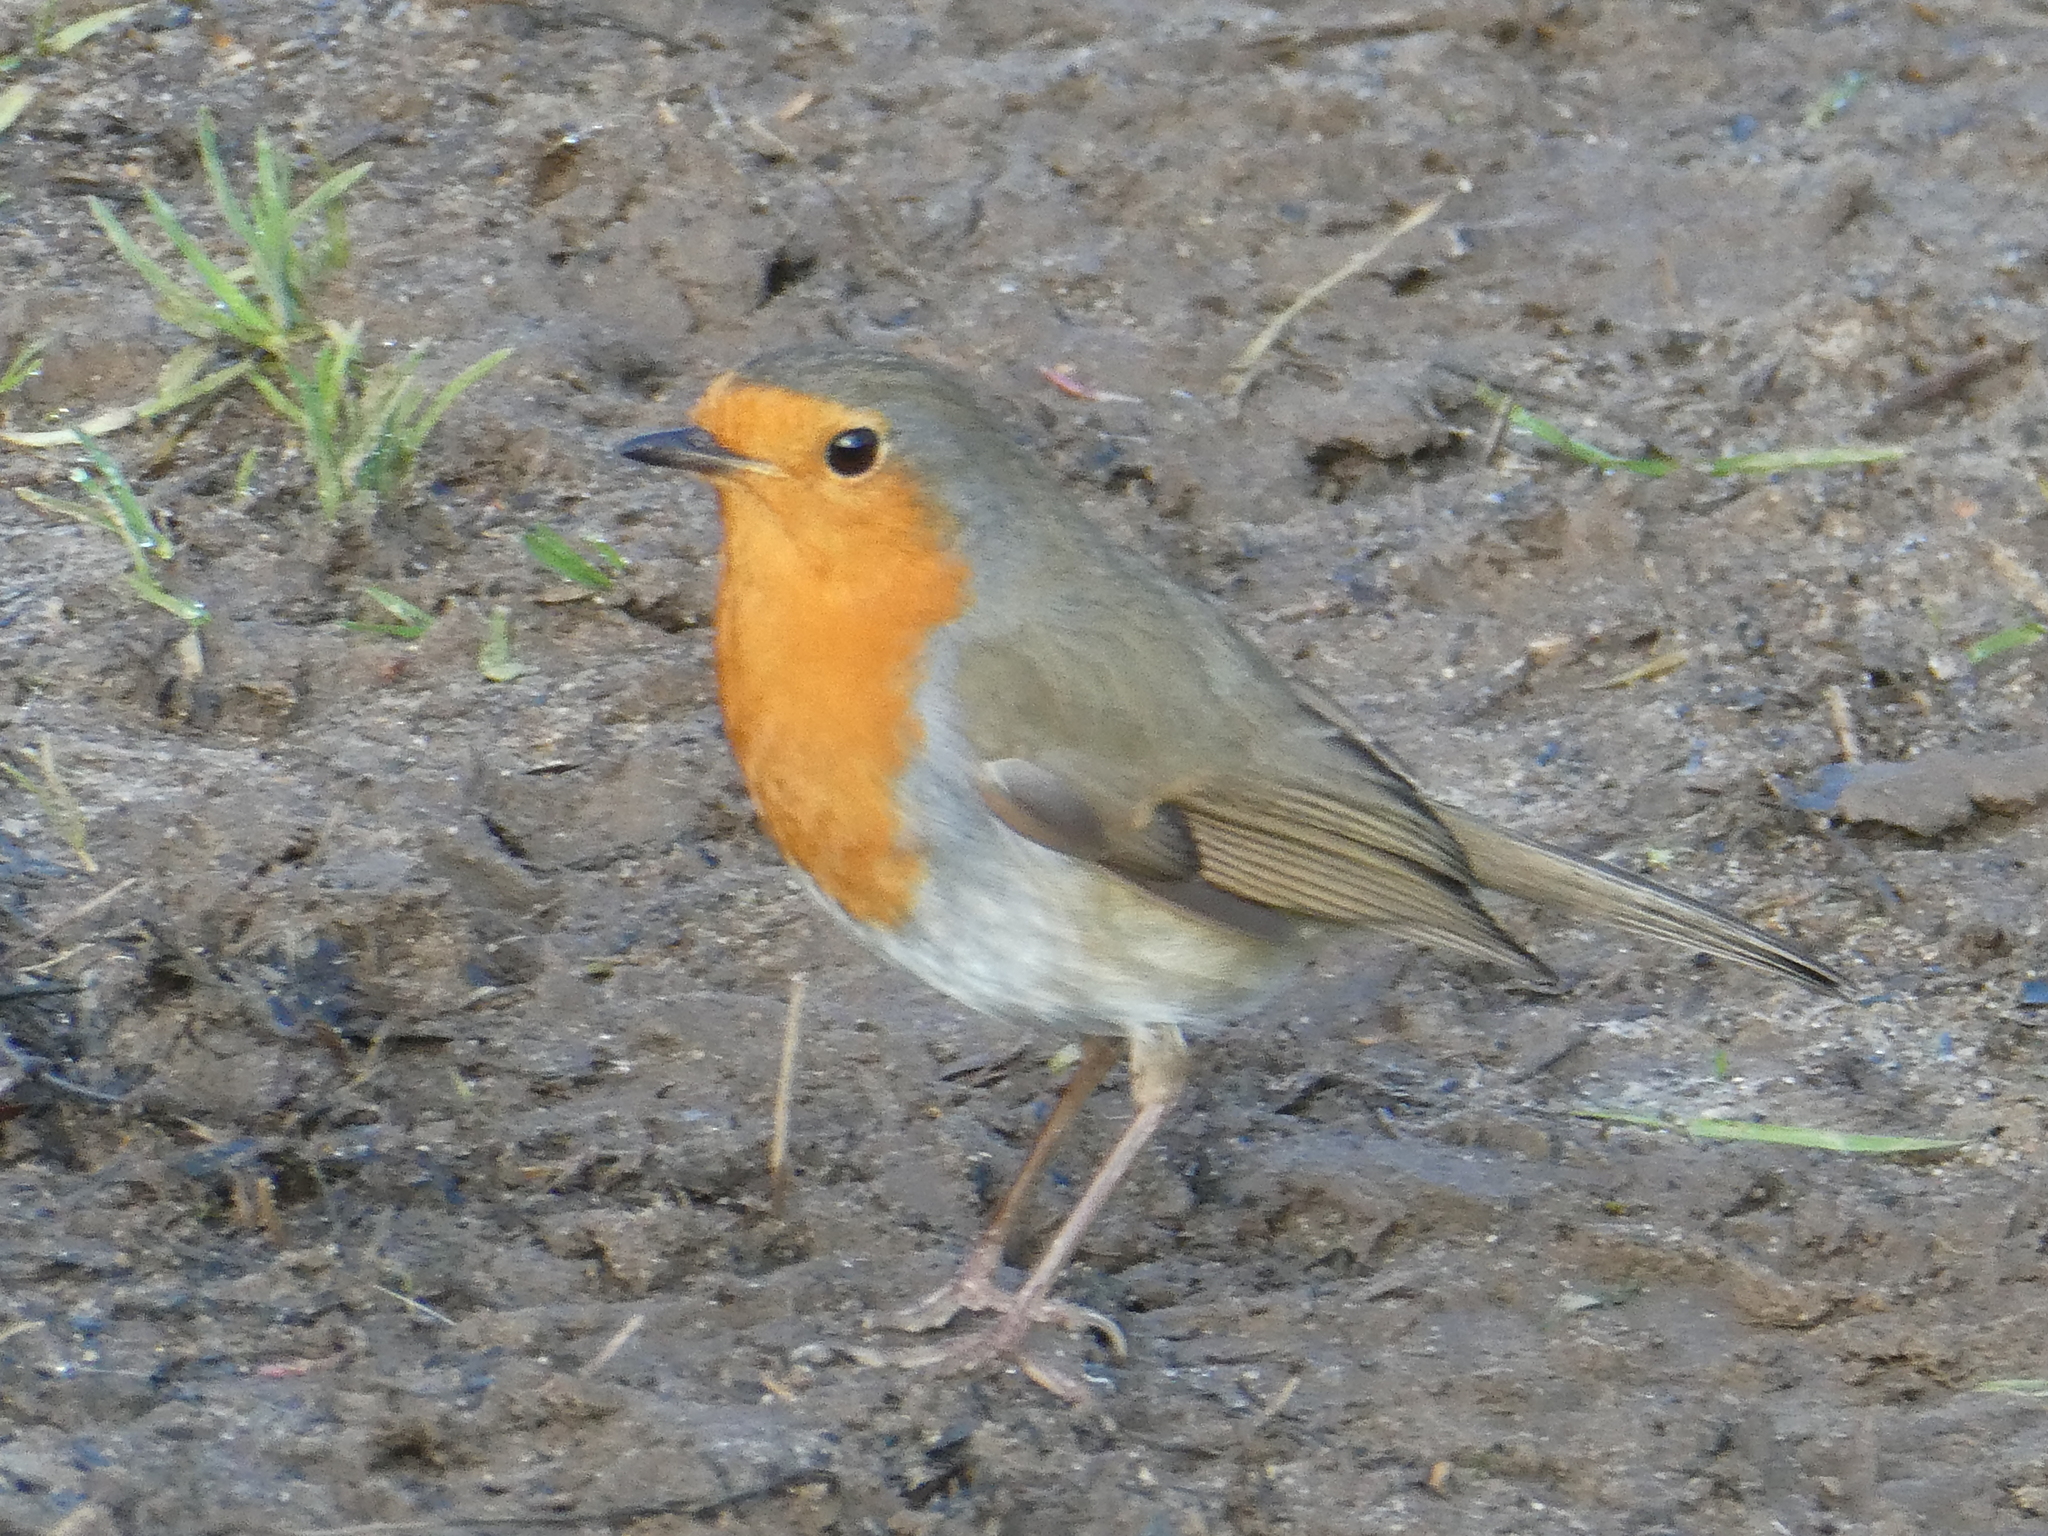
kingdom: Animalia
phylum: Chordata
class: Aves
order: Passeriformes
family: Muscicapidae
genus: Erithacus
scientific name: Erithacus rubecula
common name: European robin
